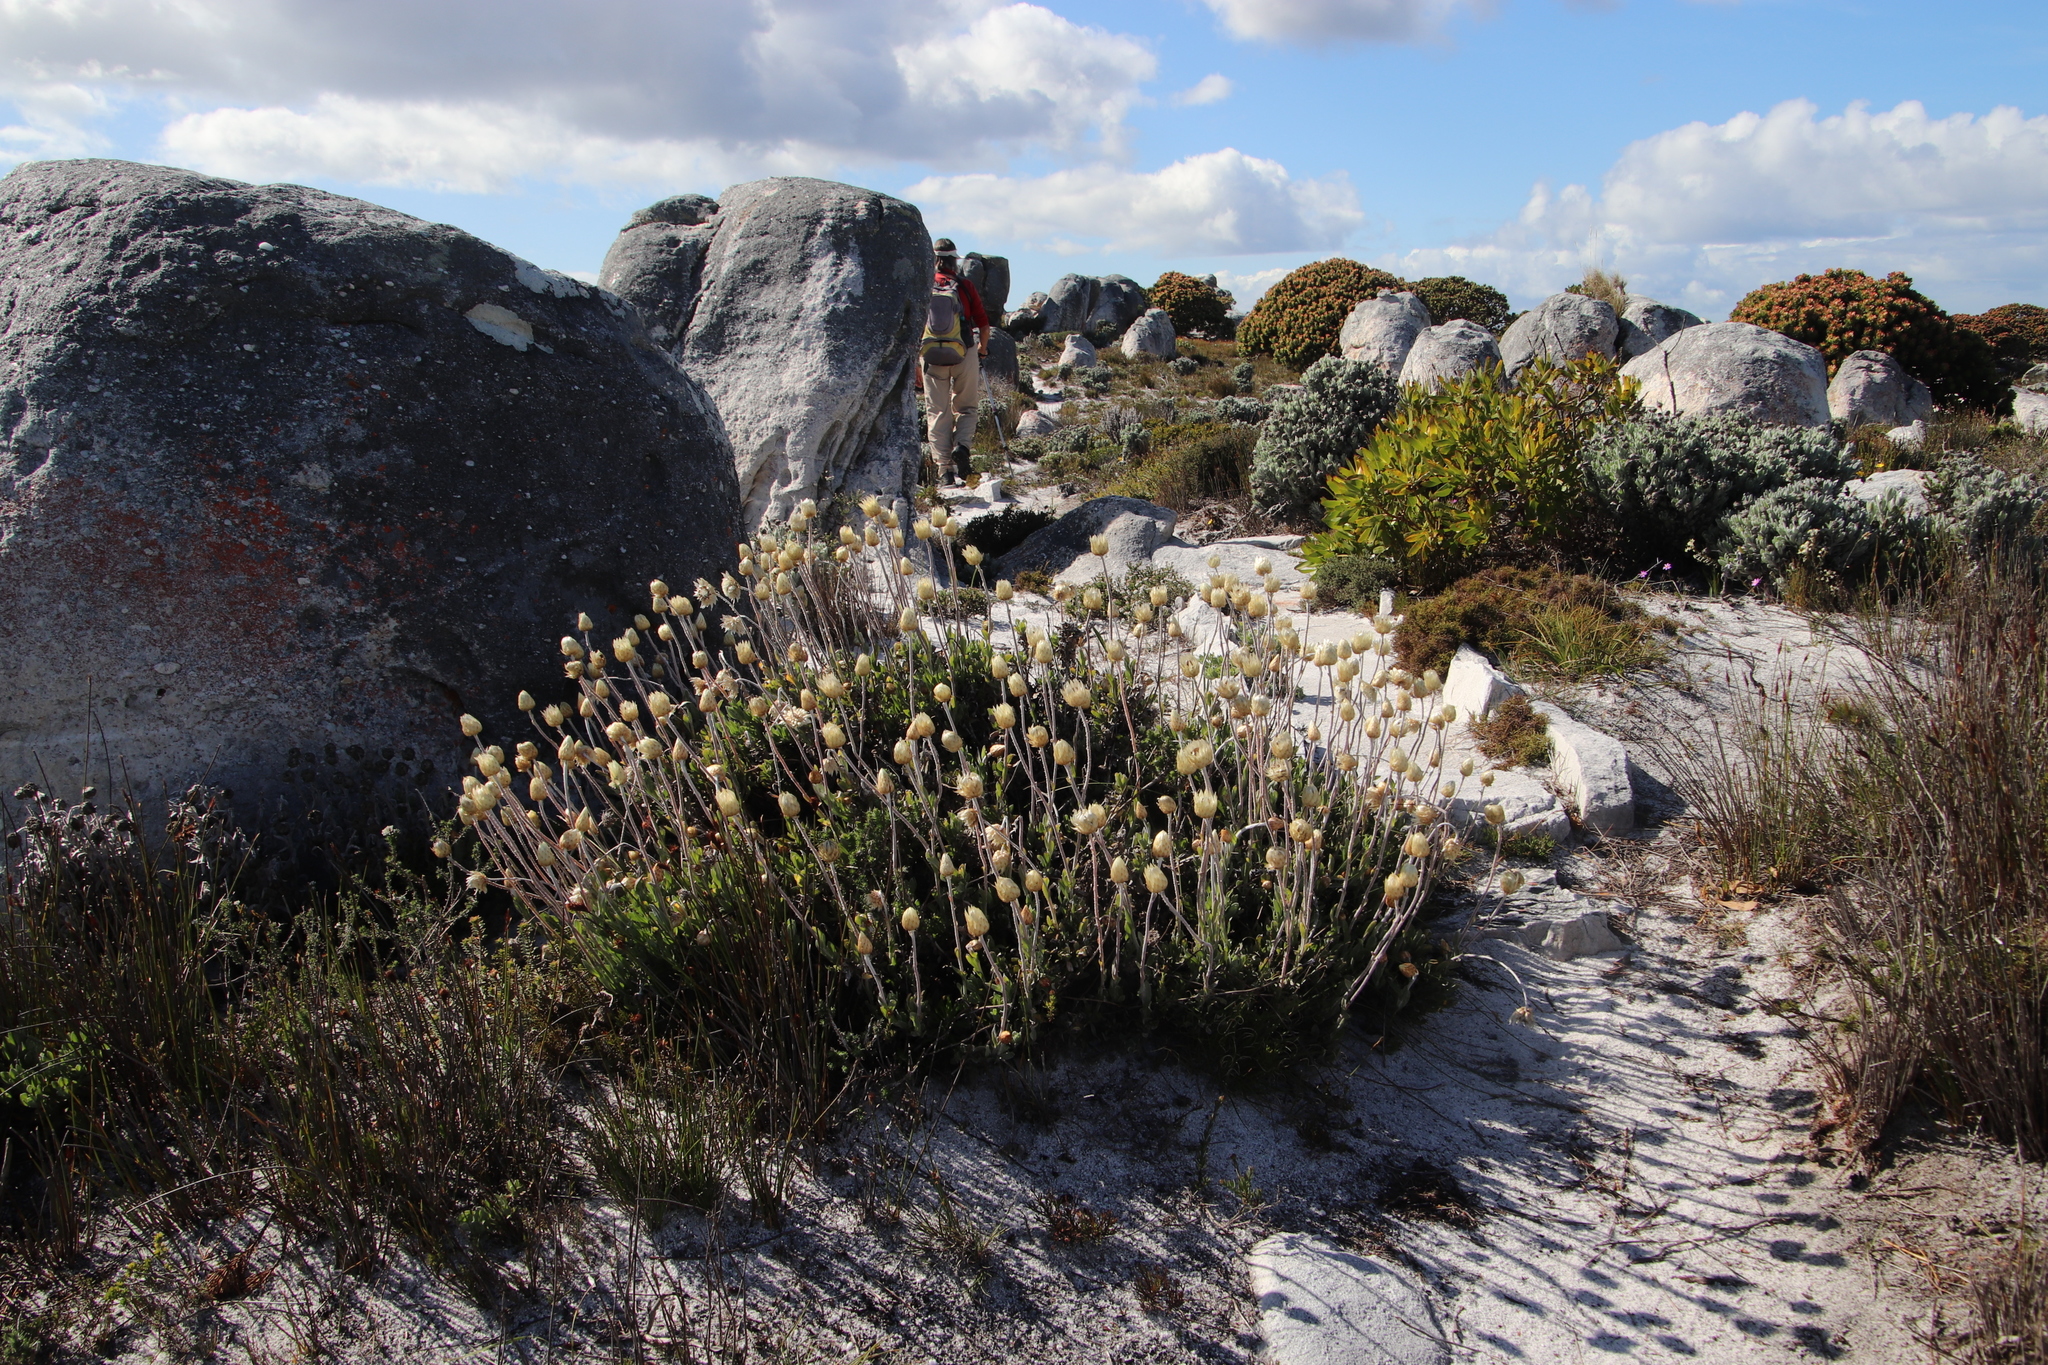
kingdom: Plantae
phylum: Tracheophyta
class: Magnoliopsida
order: Asterales
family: Asteraceae
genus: Syncarpha
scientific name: Syncarpha speciosissima
